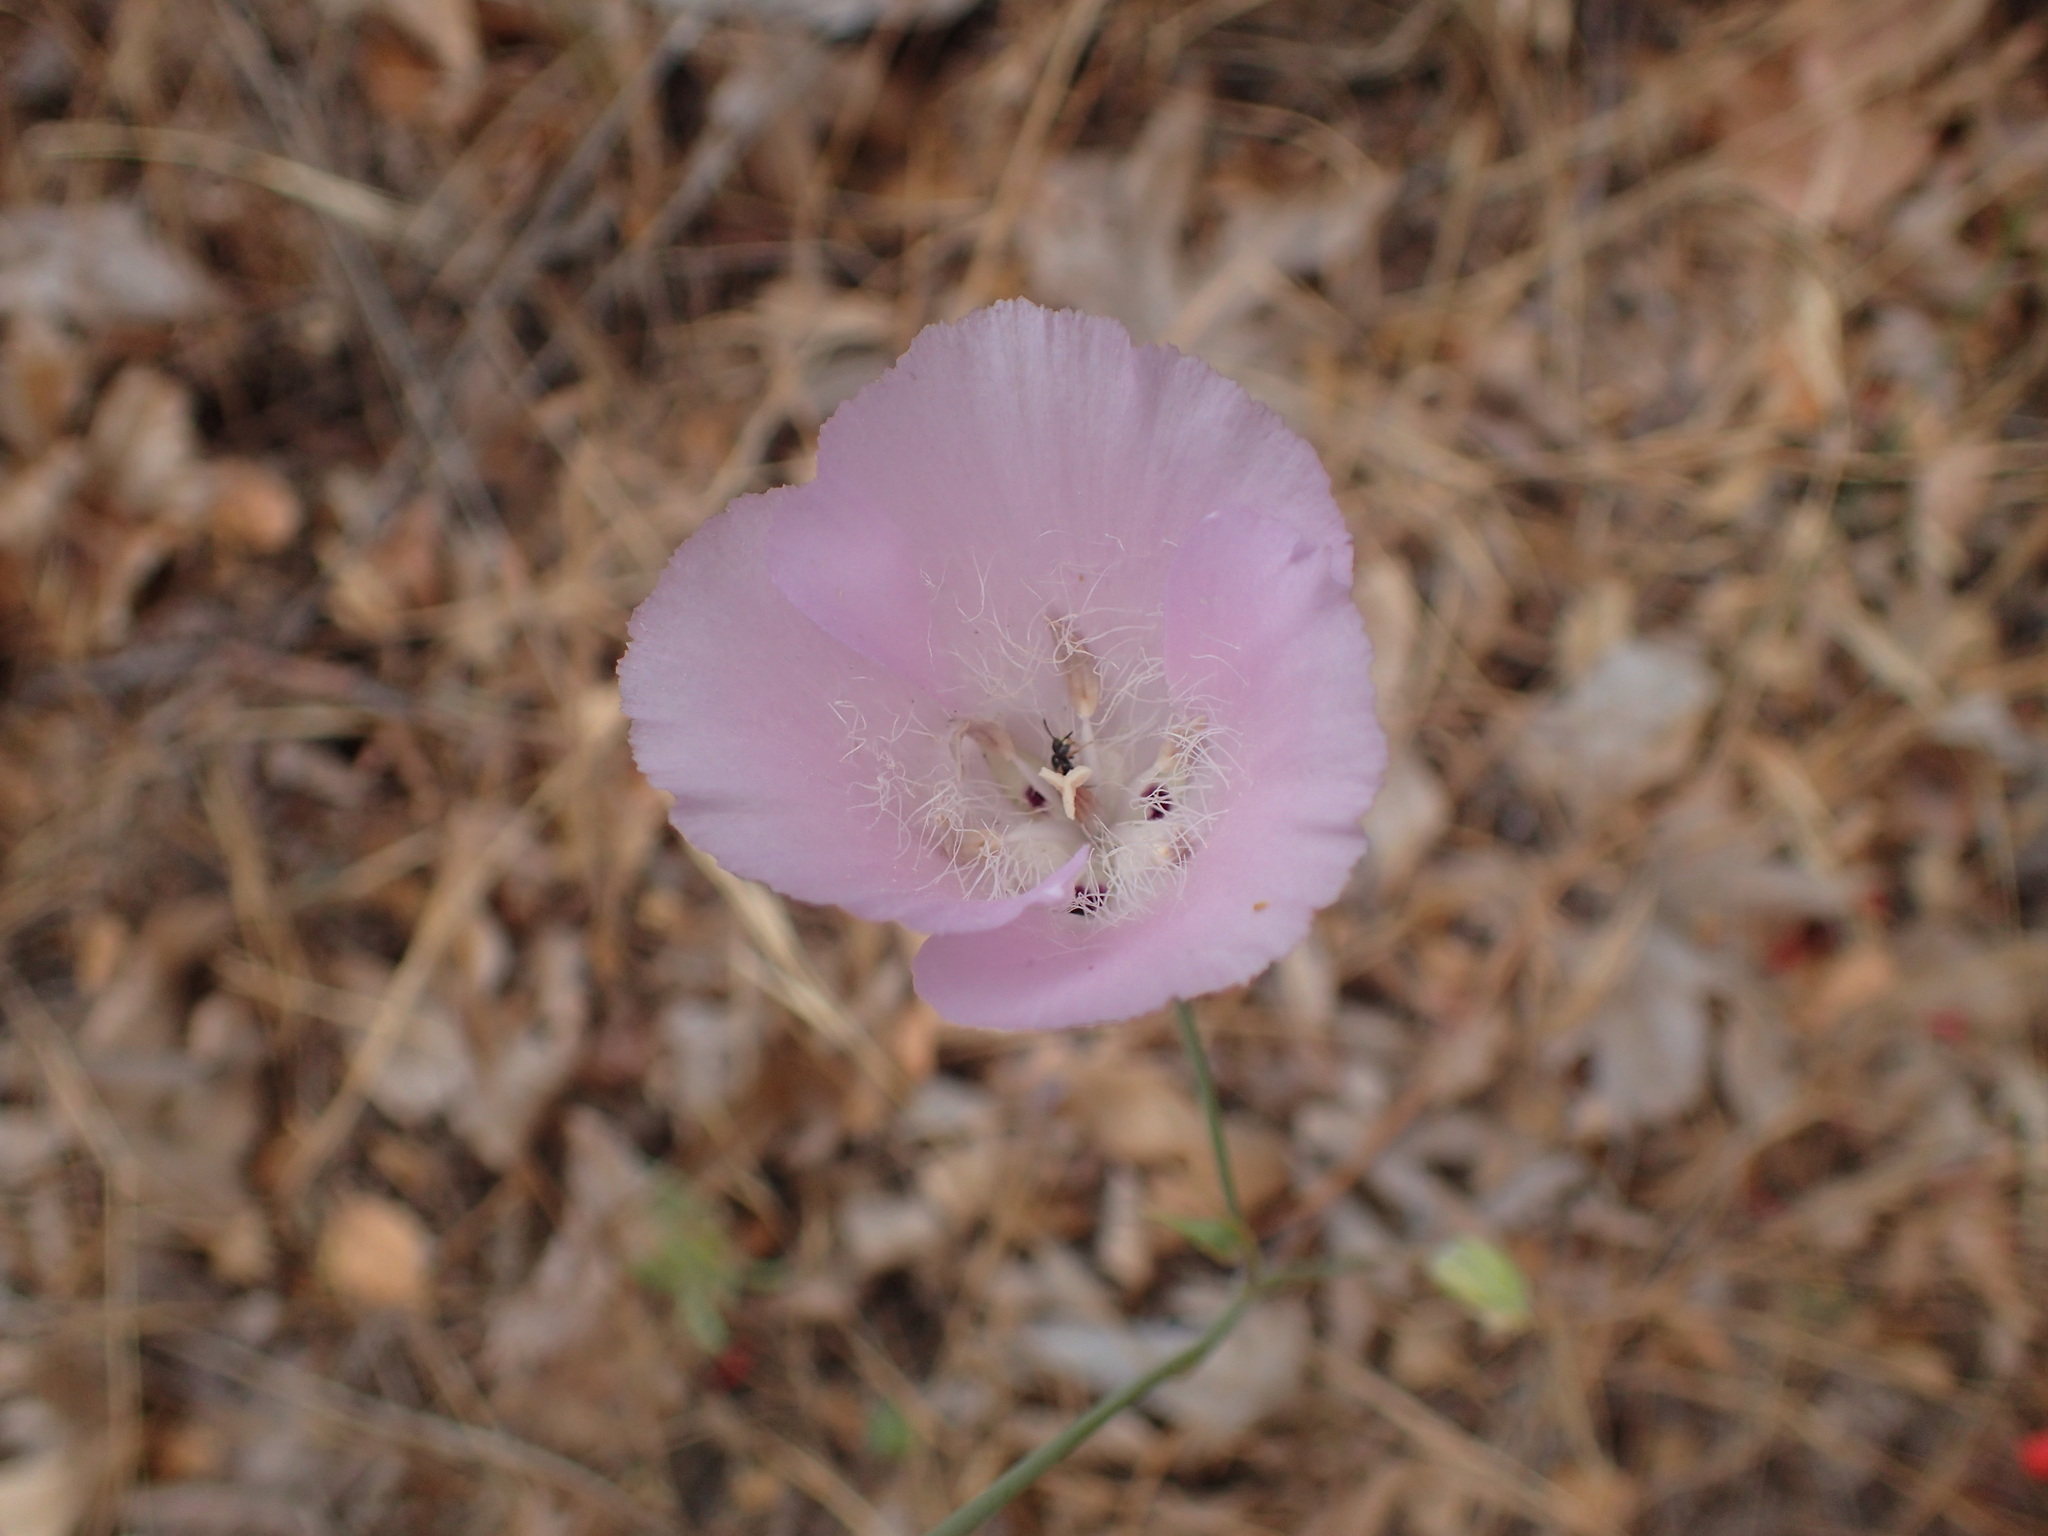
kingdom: Plantae
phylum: Tracheophyta
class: Liliopsida
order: Liliales
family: Liliaceae
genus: Calochortus
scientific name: Calochortus splendens
